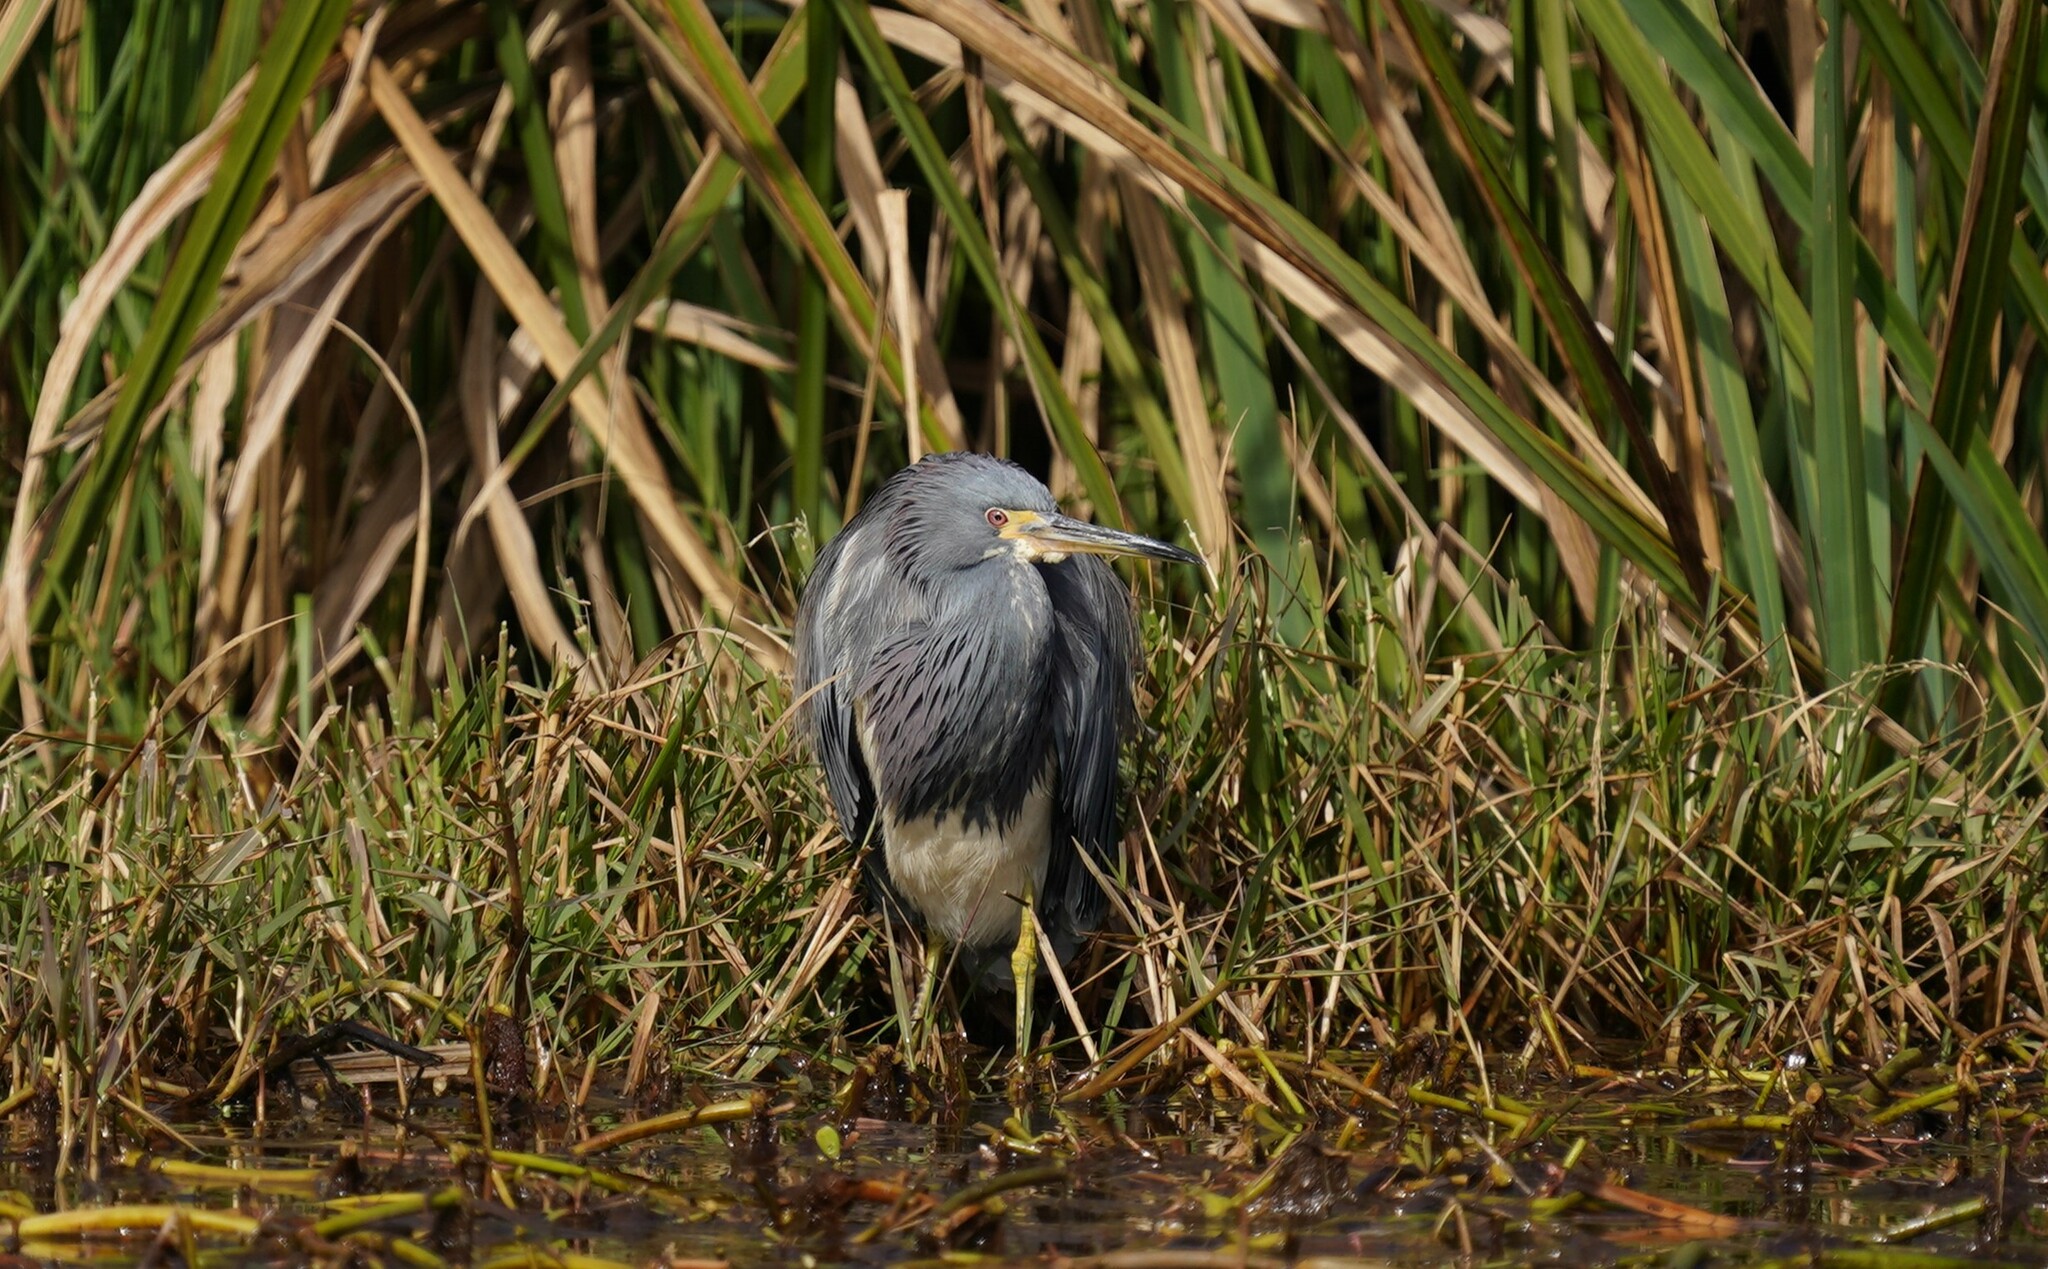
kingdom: Animalia
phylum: Chordata
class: Aves
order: Pelecaniformes
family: Ardeidae
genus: Egretta
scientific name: Egretta tricolor
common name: Tricolored heron
